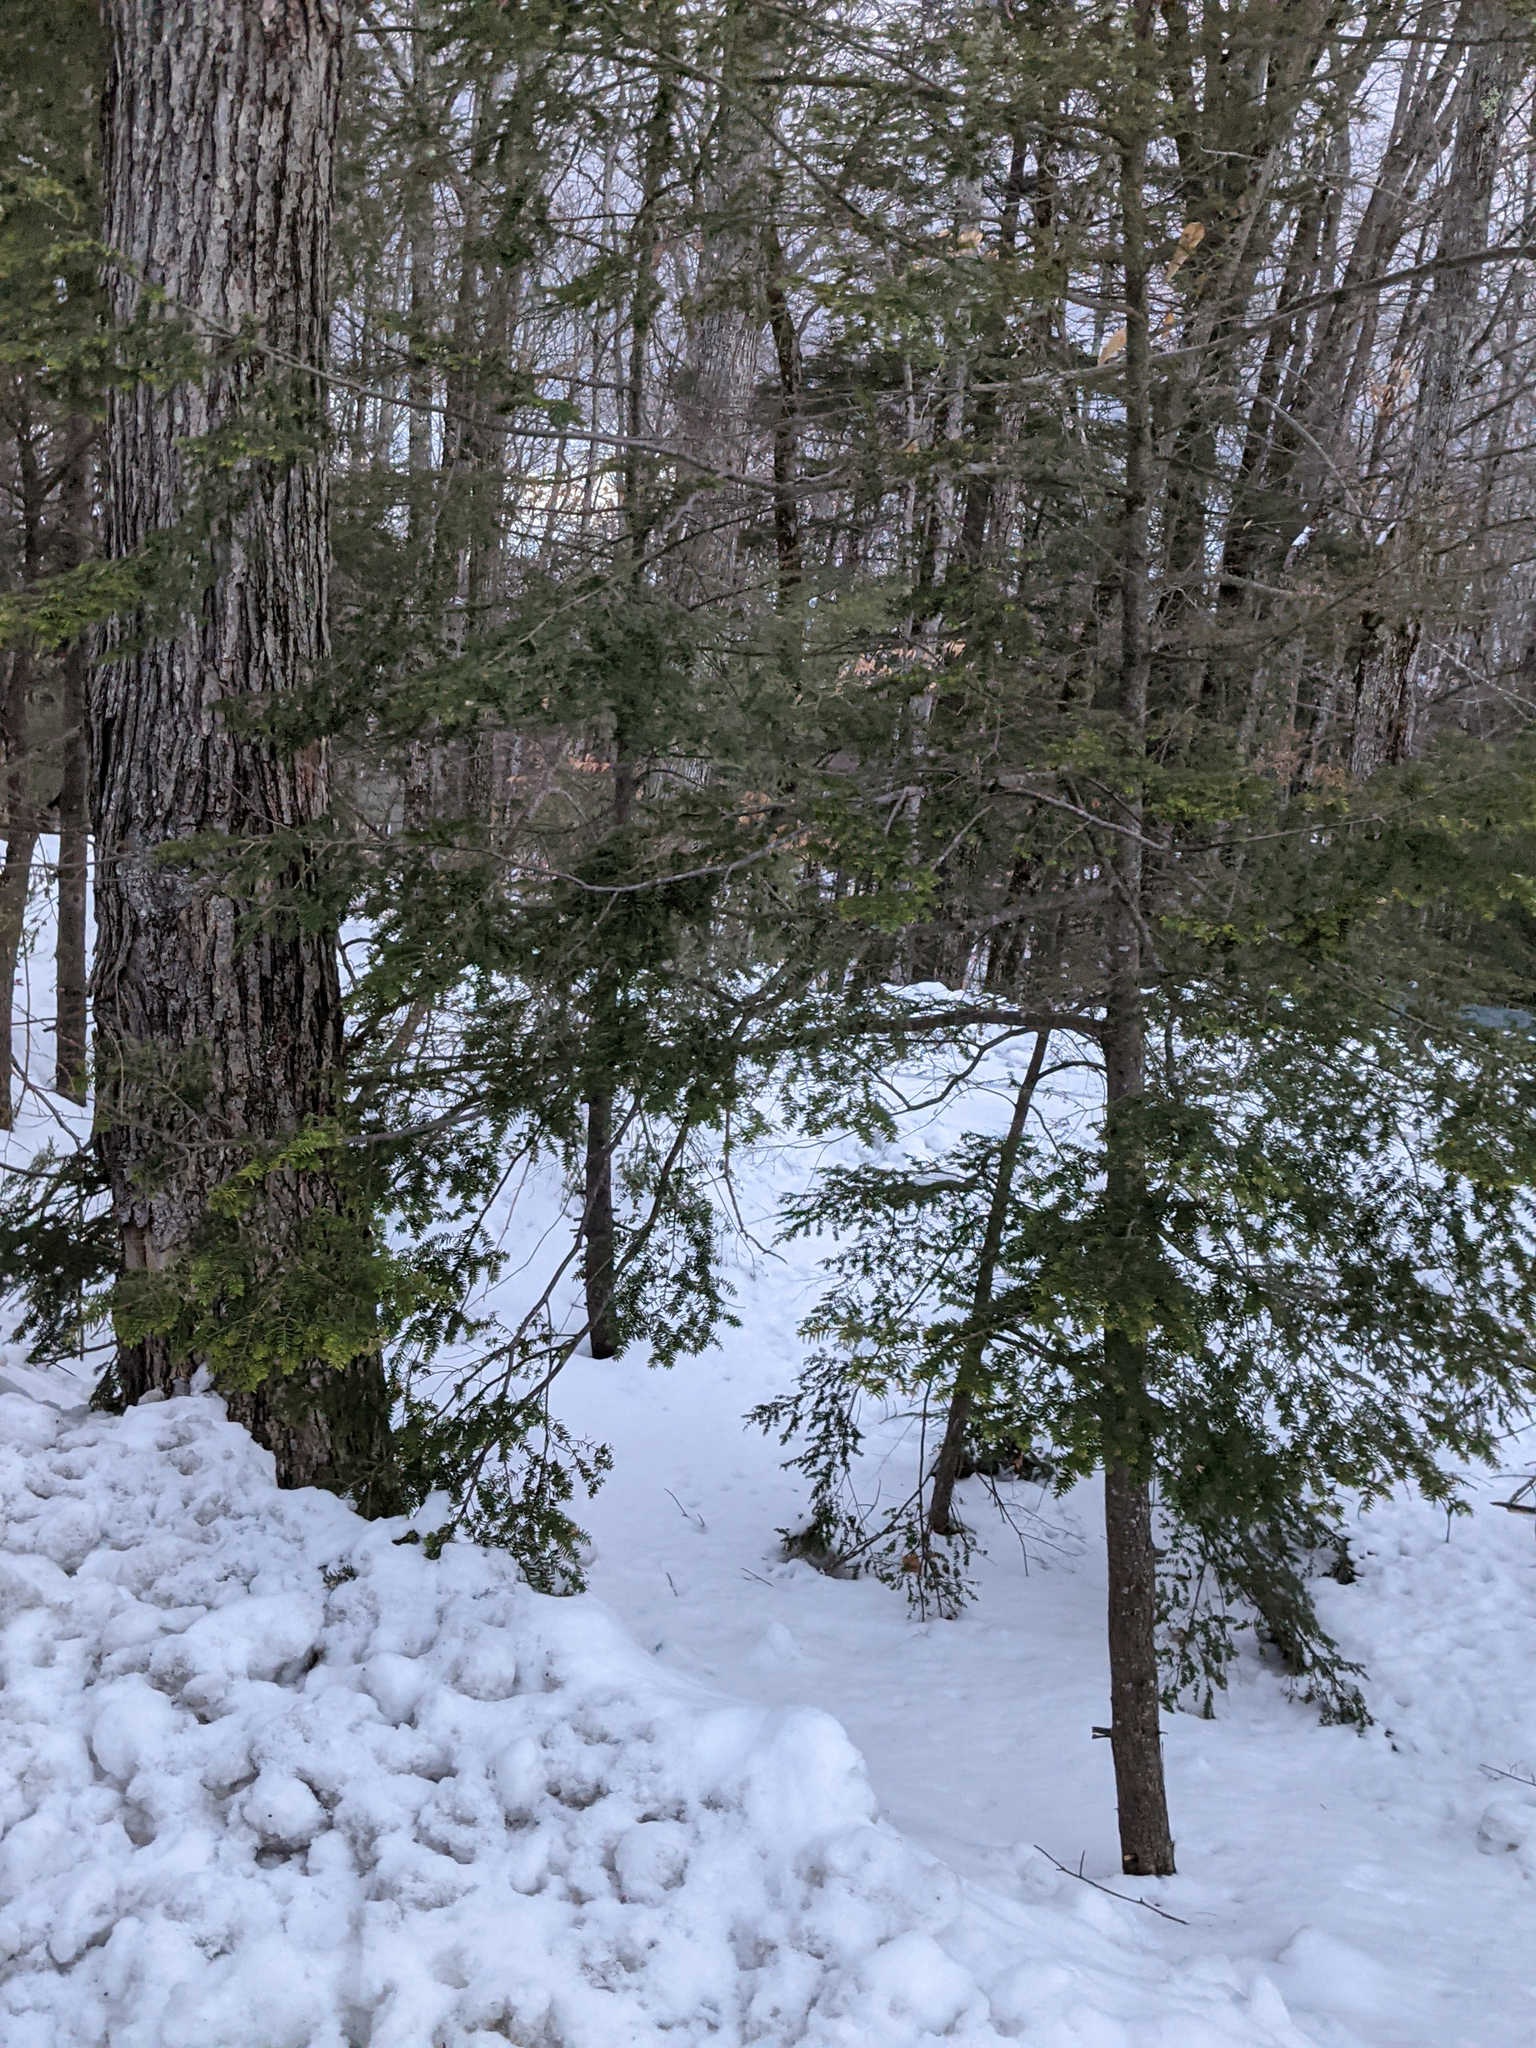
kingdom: Plantae
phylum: Tracheophyta
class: Pinopsida
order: Pinales
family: Pinaceae
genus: Tsuga
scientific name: Tsuga canadensis
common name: Eastern hemlock
